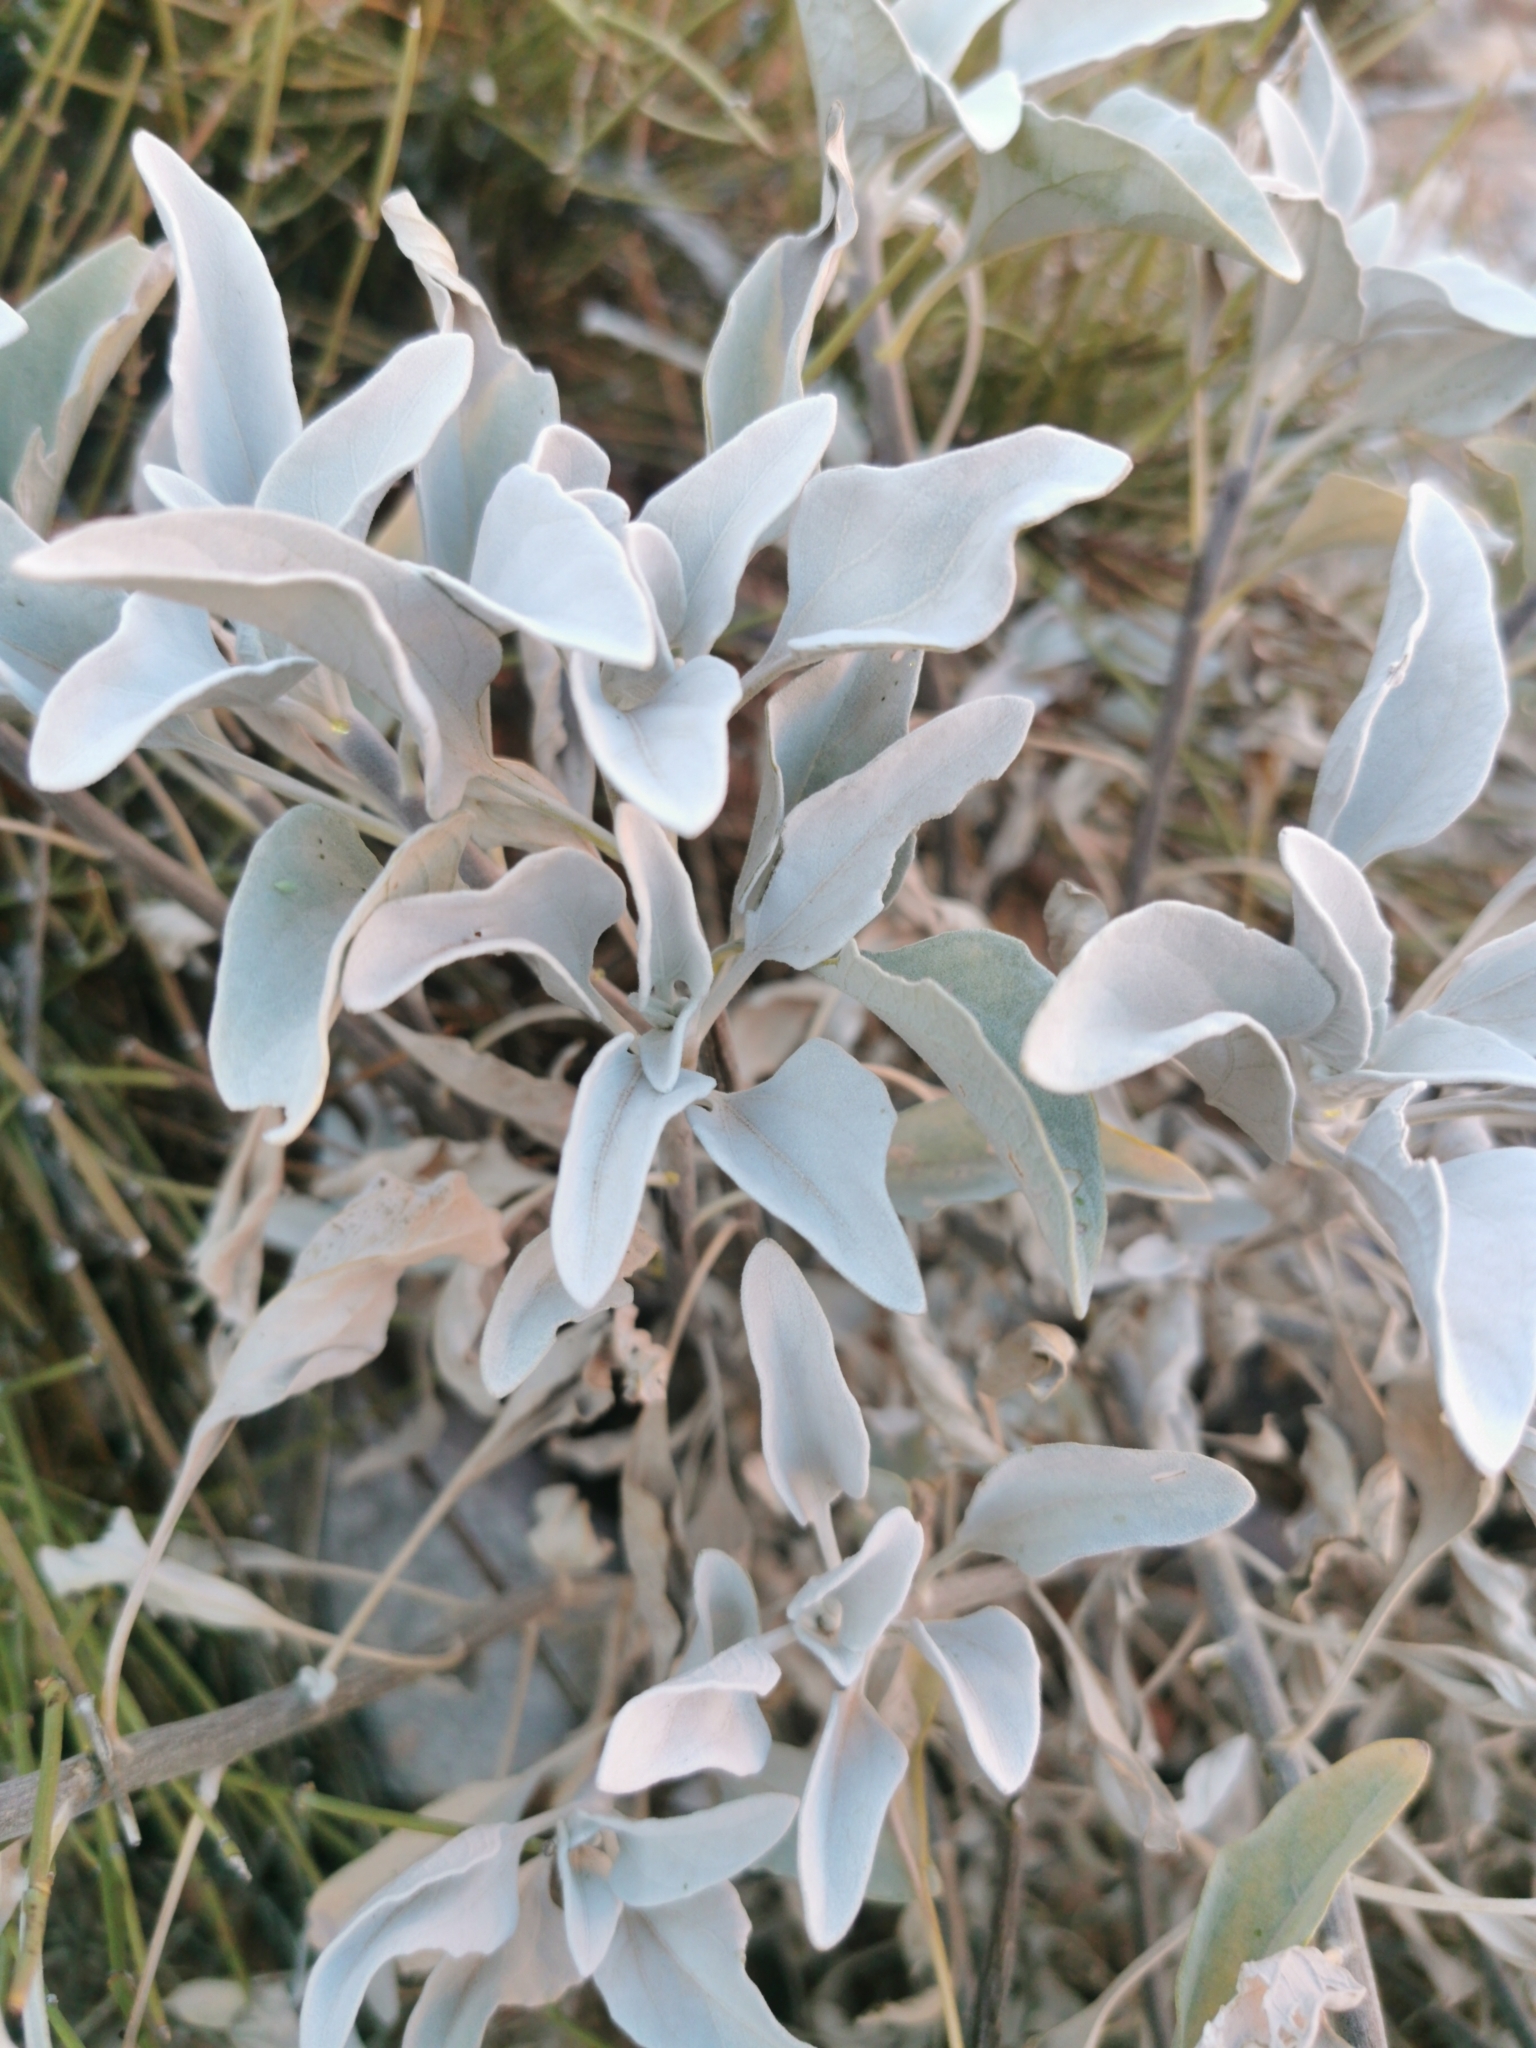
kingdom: Plantae
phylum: Tracheophyta
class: Magnoliopsida
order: Asterales
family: Asteraceae
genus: Encelia
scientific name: Encelia farinosa
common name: Brittlebush
